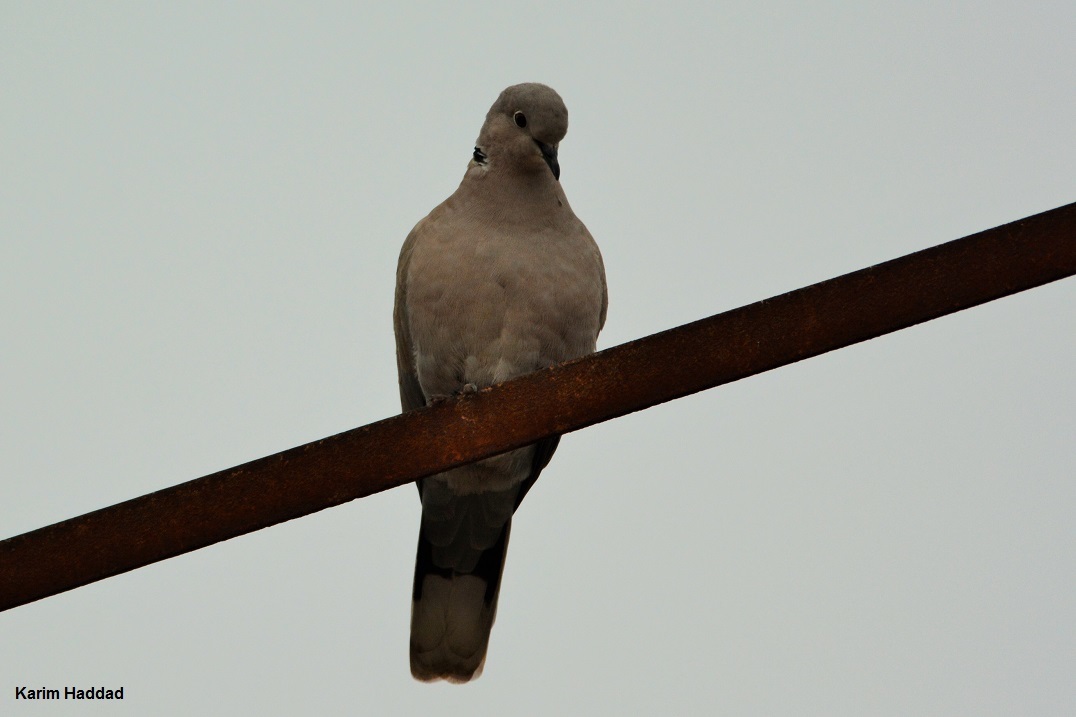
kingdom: Animalia
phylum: Chordata
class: Aves
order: Columbiformes
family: Columbidae
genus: Streptopelia
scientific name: Streptopelia decaocto
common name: Eurasian collared dove
